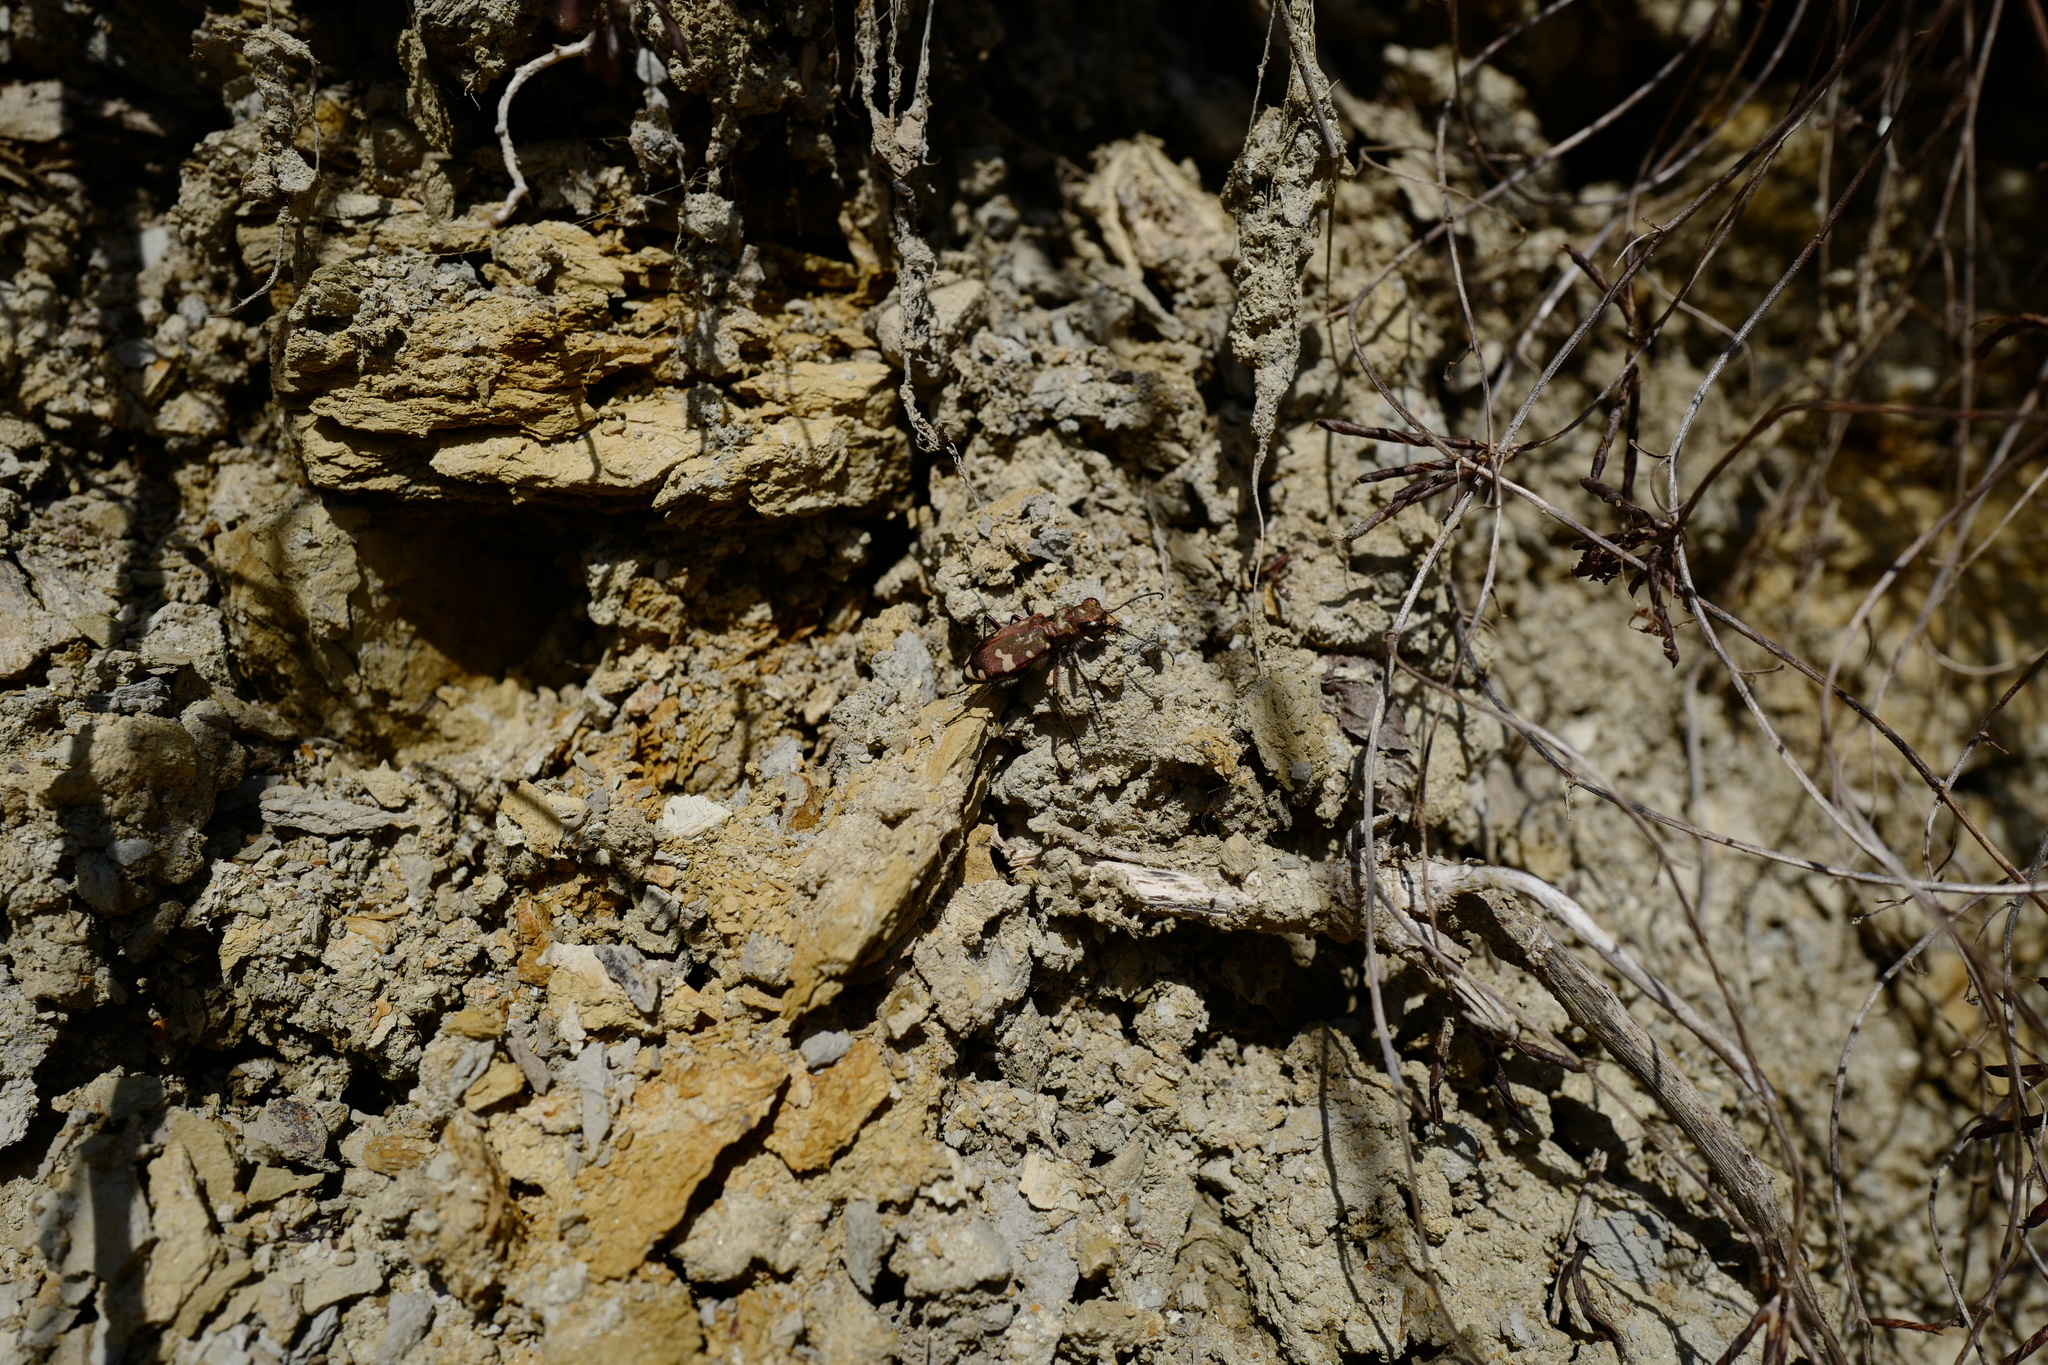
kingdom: Animalia
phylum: Arthropoda
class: Insecta
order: Coleoptera
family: Carabidae
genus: Cicindela
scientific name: Cicindela sylvicola
